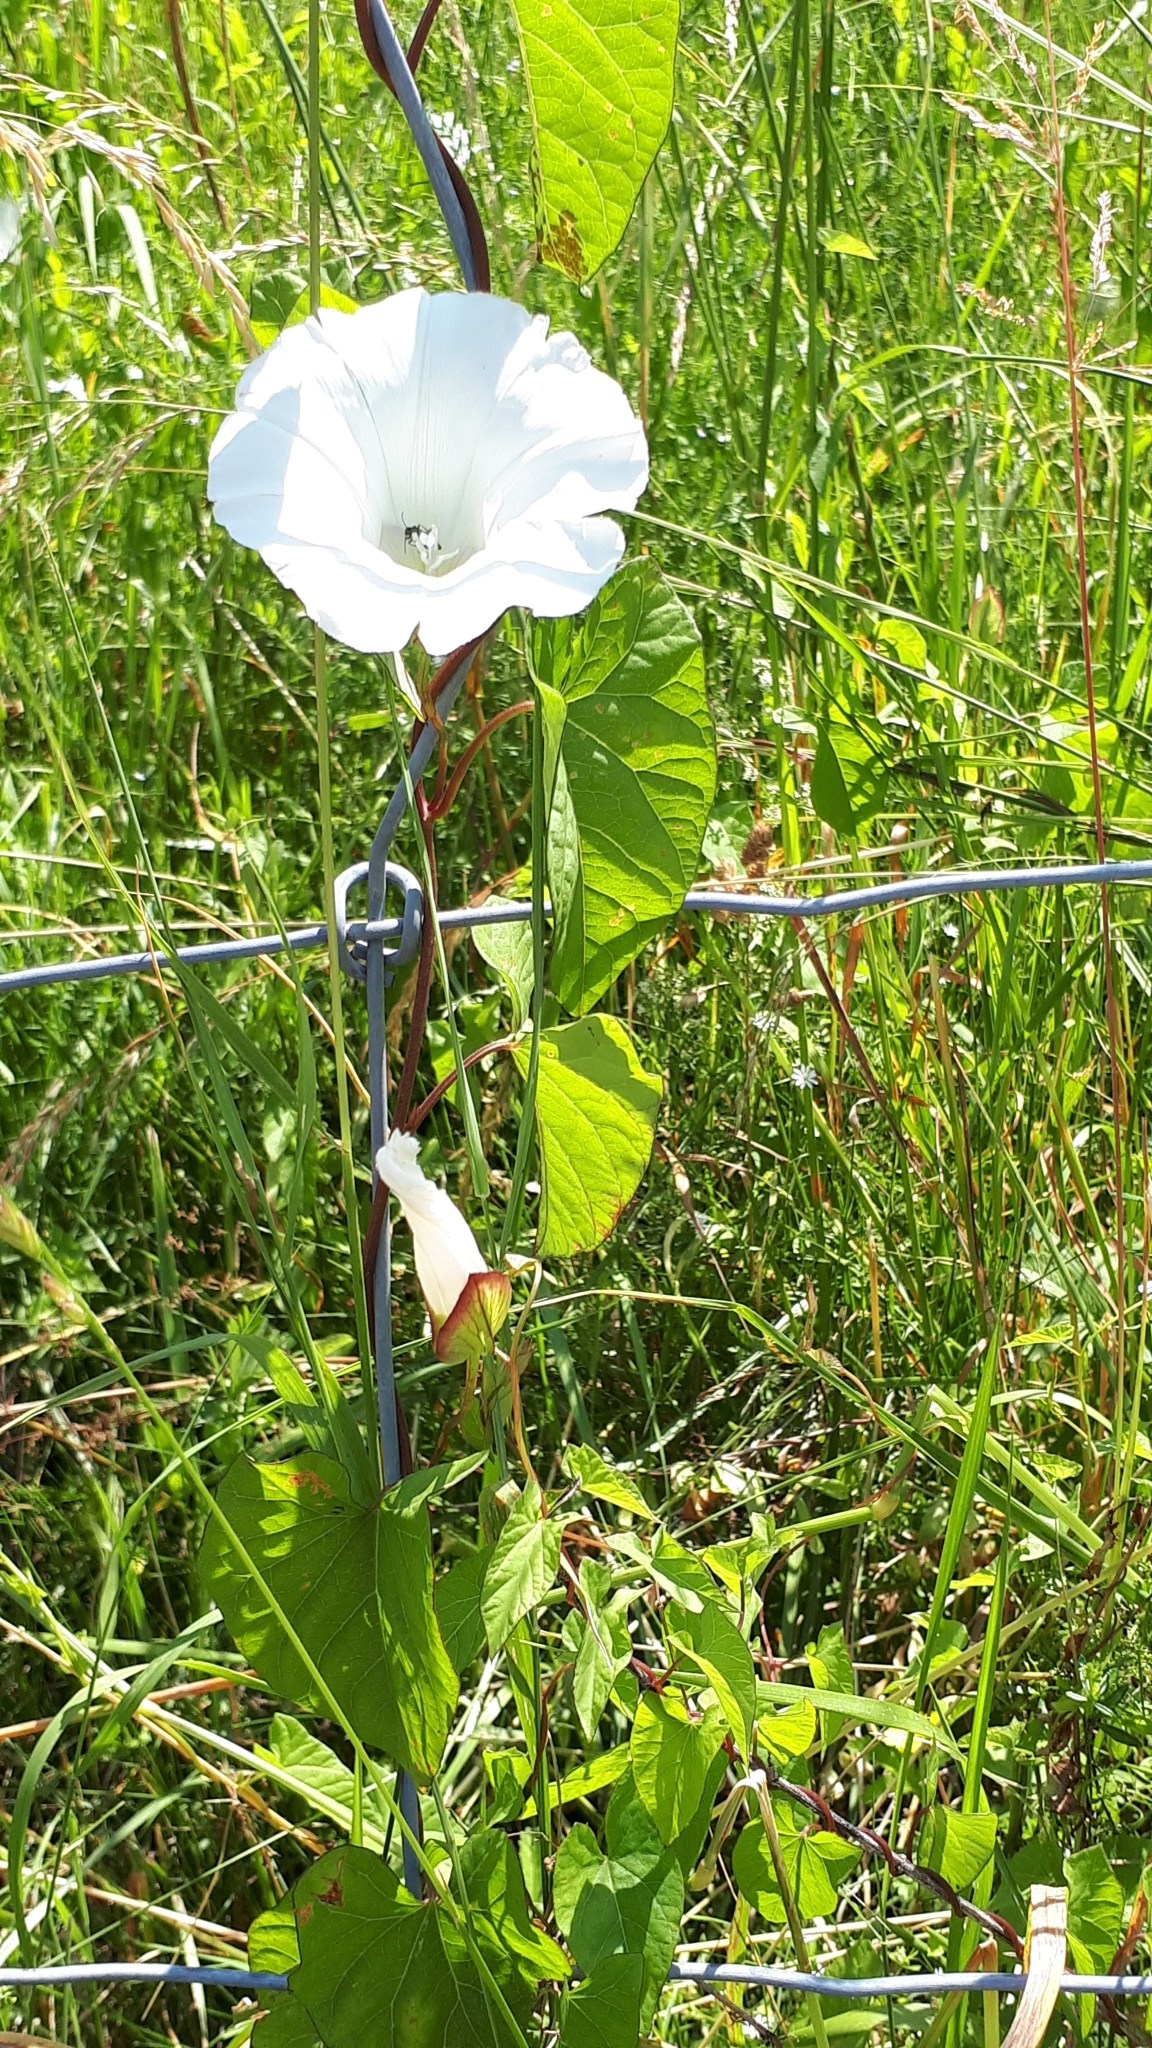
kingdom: Plantae
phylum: Tracheophyta
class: Magnoliopsida
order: Solanales
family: Convolvulaceae
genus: Calystegia
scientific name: Calystegia sepium
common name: Hedge bindweed
